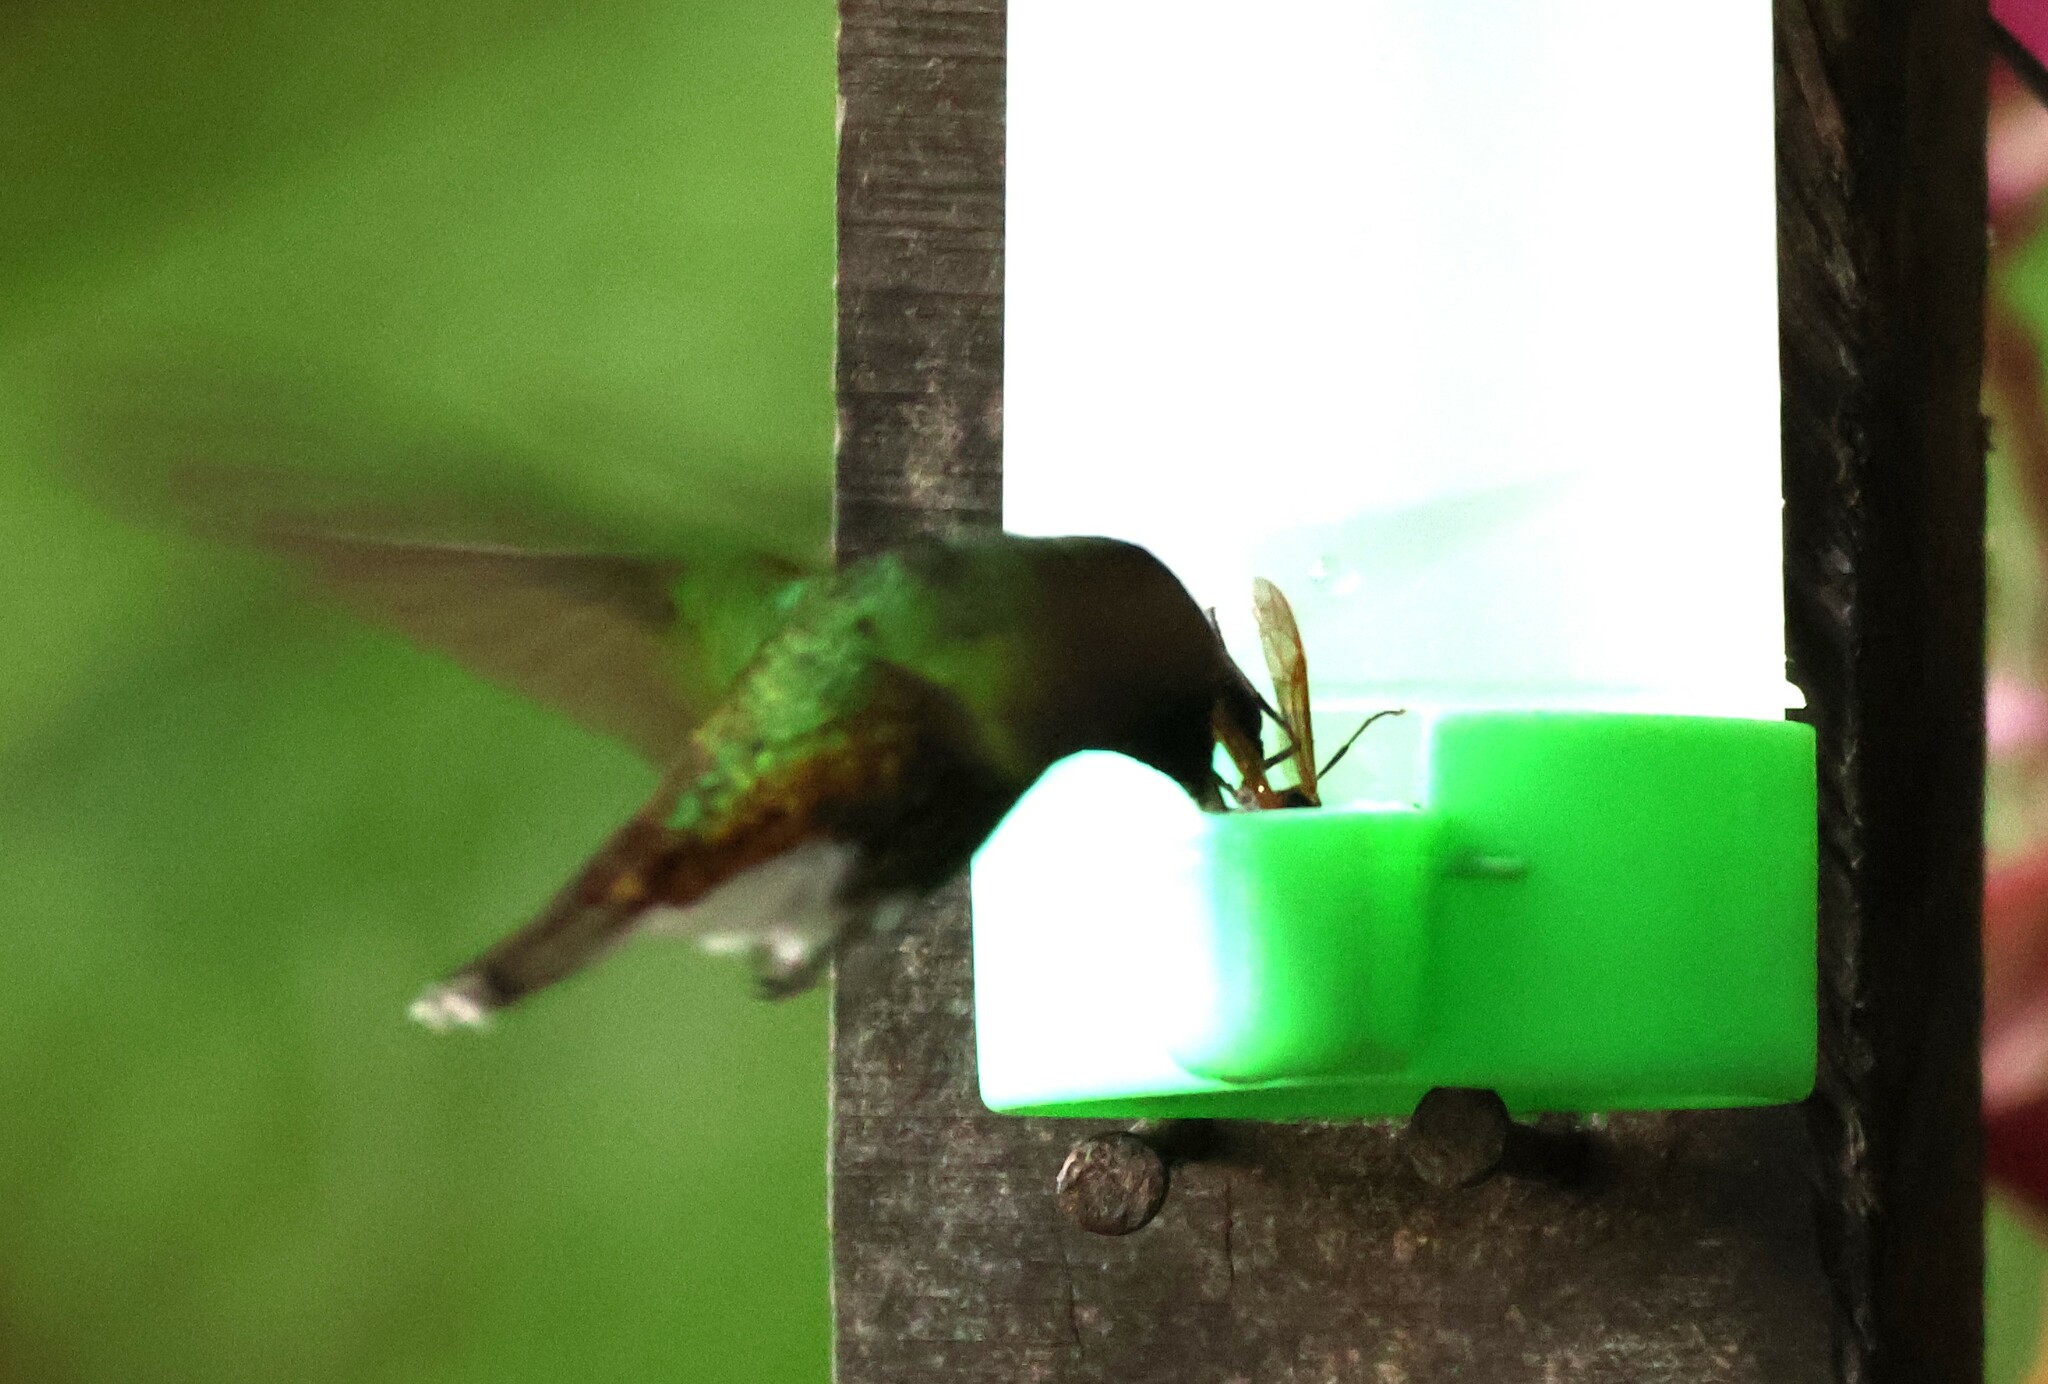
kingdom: Animalia
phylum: Chordata
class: Aves
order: Apodiformes
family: Trochilidae
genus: Microchera
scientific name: Microchera cupreiceps
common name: Coppery-headed emerald
